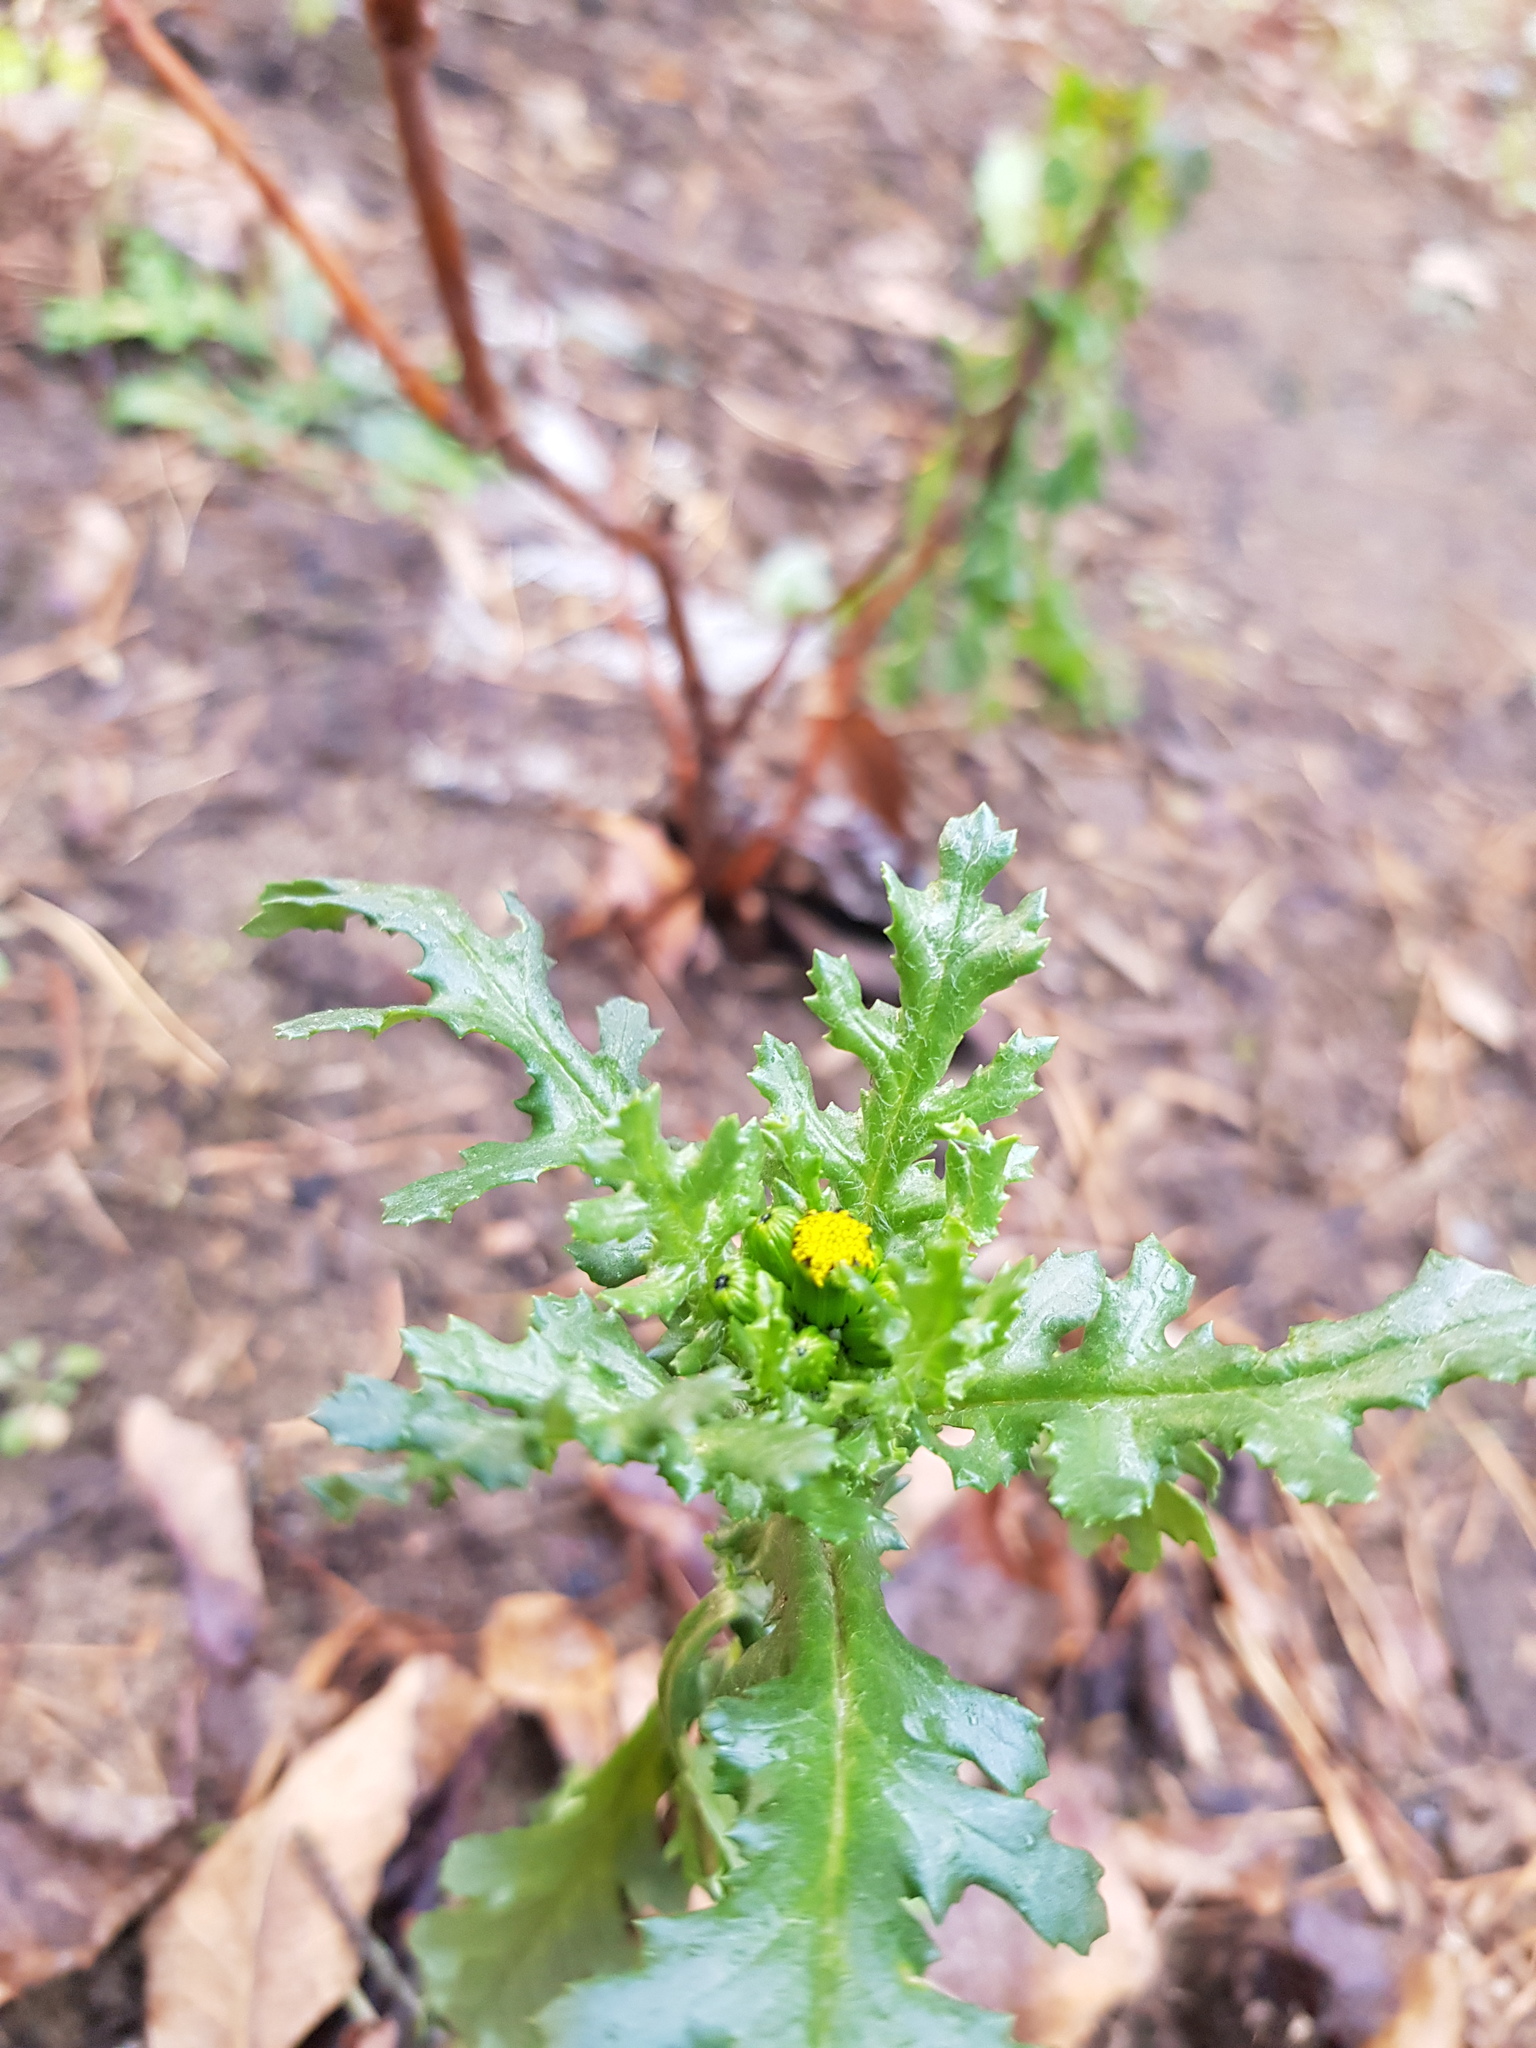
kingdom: Plantae
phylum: Tracheophyta
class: Magnoliopsida
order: Asterales
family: Asteraceae
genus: Senecio
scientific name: Senecio vulgaris
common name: Old-man-in-the-spring
